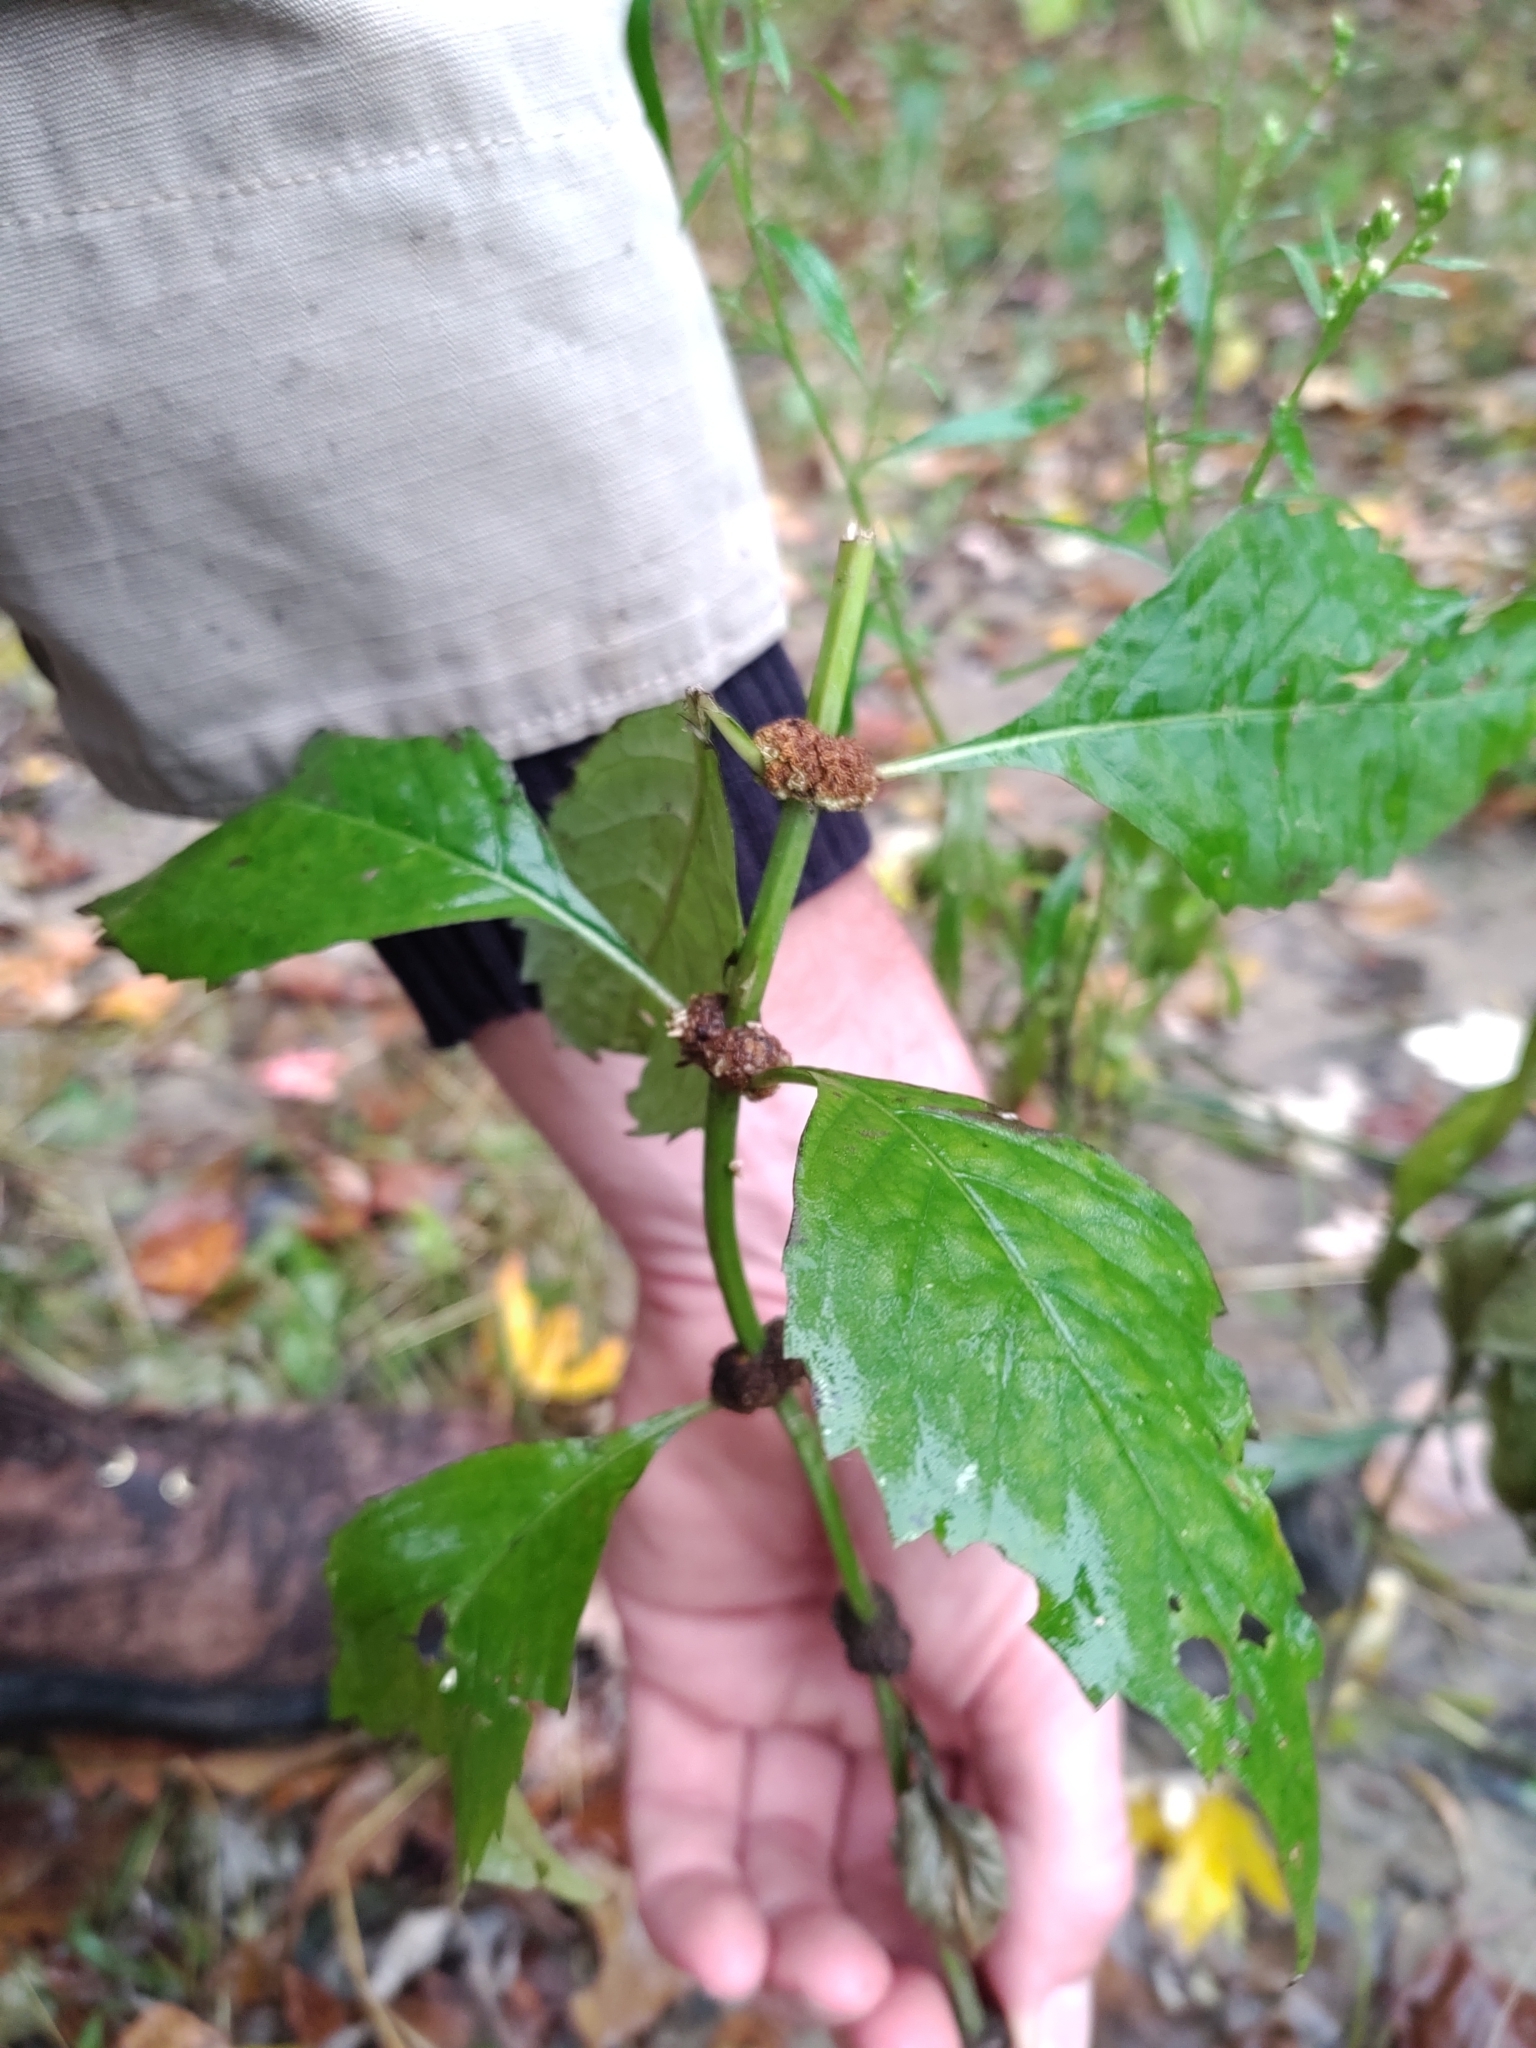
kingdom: Plantae
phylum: Tracheophyta
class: Magnoliopsida
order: Lamiales
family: Lamiaceae
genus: Lycopus
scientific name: Lycopus uniflorus
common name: Northern bugleweed
